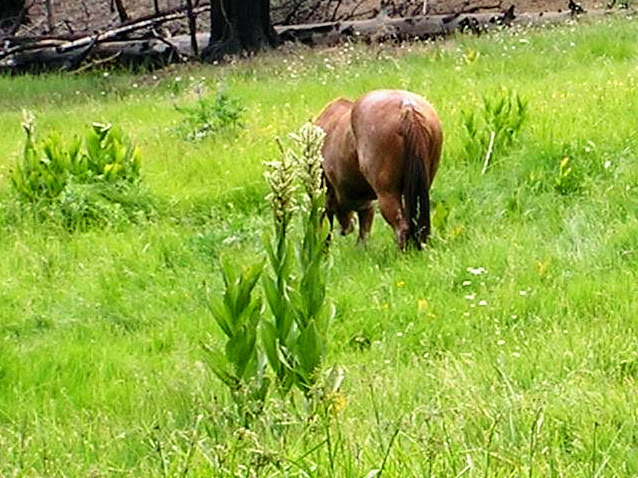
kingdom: Plantae
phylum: Tracheophyta
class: Liliopsida
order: Liliales
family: Melanthiaceae
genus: Veratrum
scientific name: Veratrum californicum
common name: California veratrum
